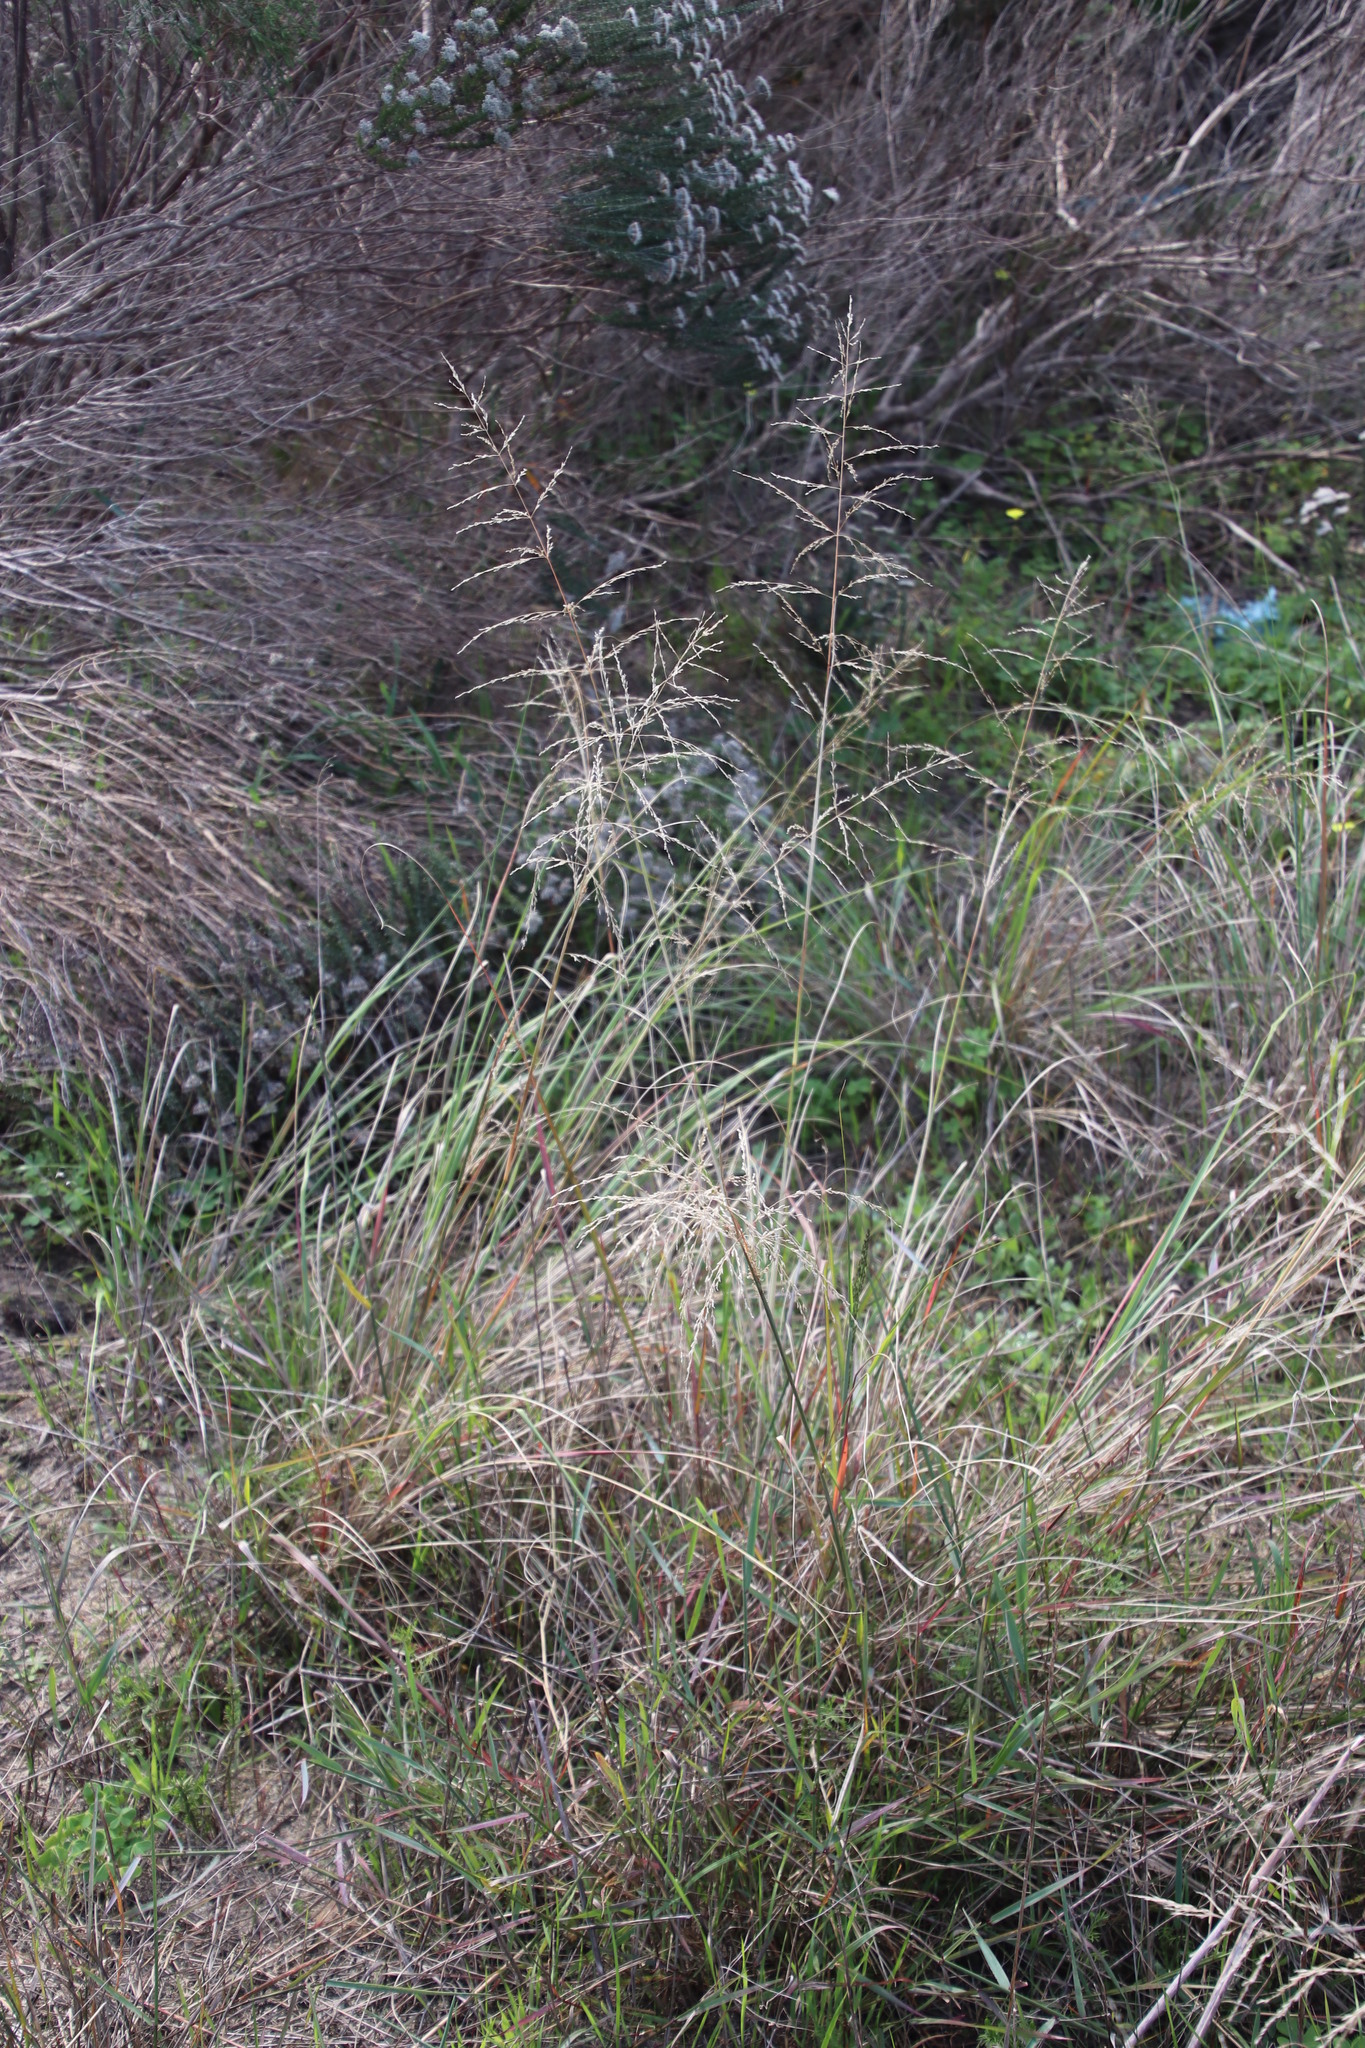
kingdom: Plantae
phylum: Tracheophyta
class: Liliopsida
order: Poales
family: Poaceae
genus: Eragrostis
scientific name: Eragrostis curvula
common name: African love-grass
